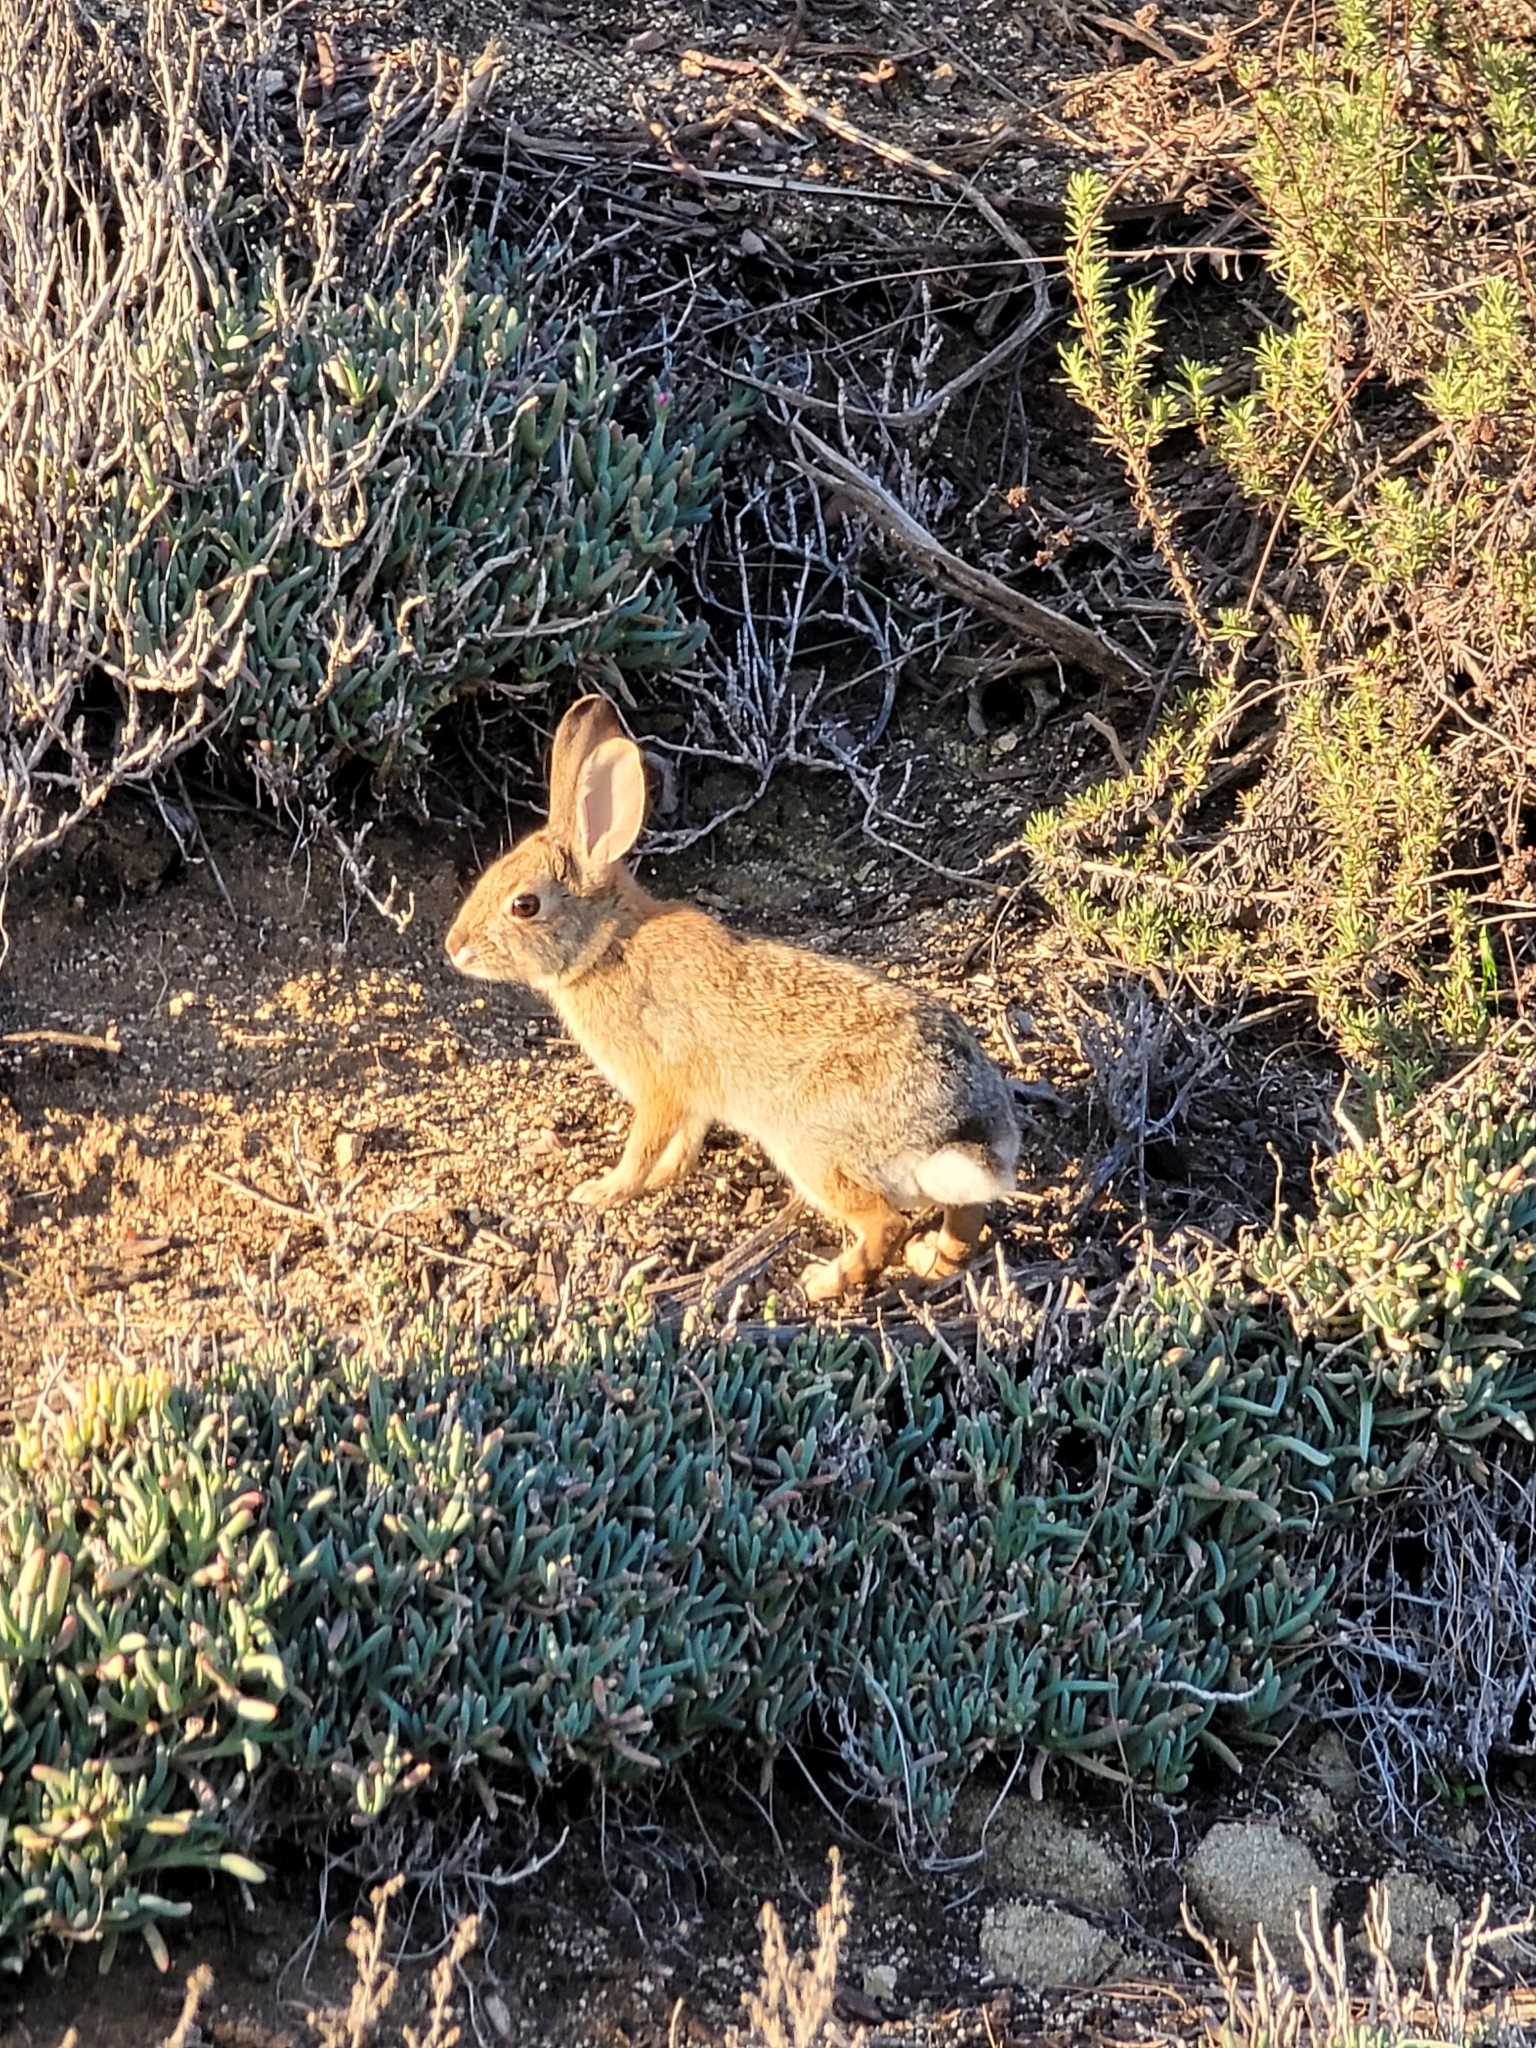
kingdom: Animalia
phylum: Chordata
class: Mammalia
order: Lagomorpha
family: Leporidae
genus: Sylvilagus
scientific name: Sylvilagus audubonii
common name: Desert cottontail
